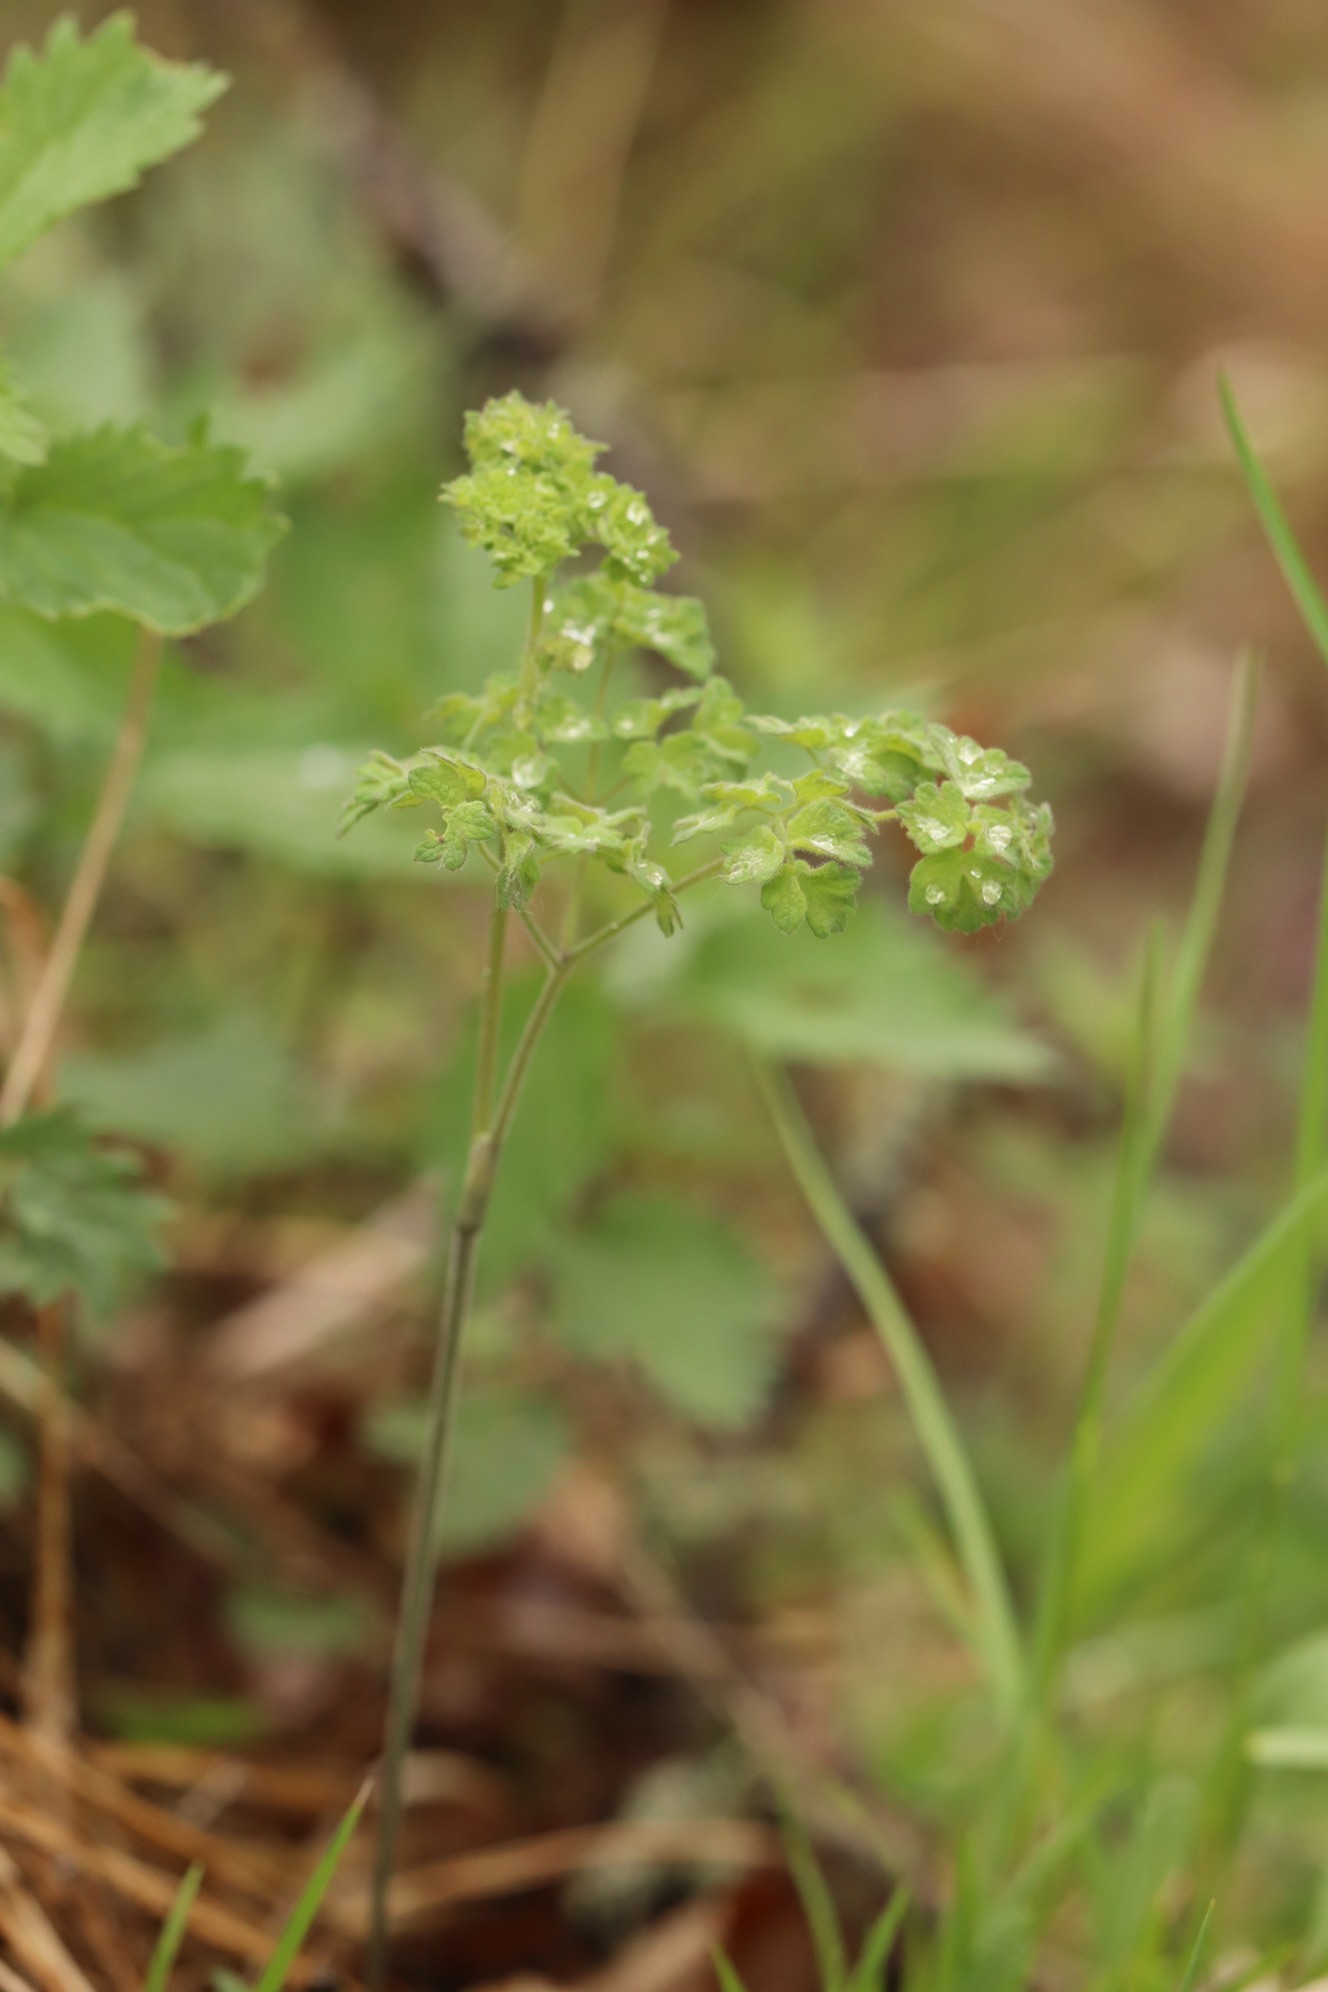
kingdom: Plantae
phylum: Tracheophyta
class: Magnoliopsida
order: Ranunculales
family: Ranunculaceae
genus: Thalictrum
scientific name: Thalictrum foetidum
